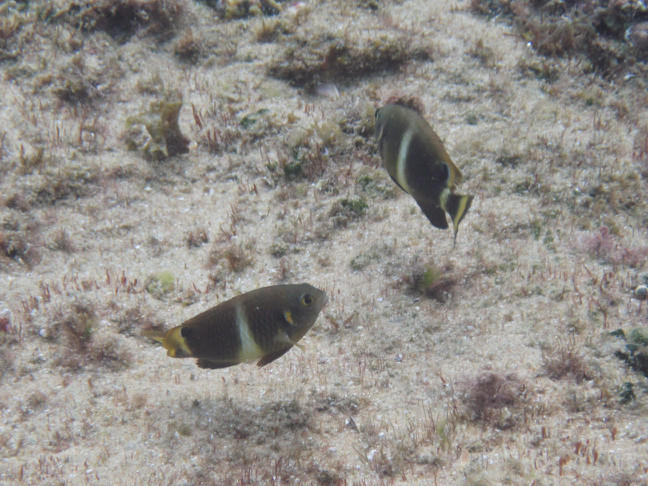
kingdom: Animalia
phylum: Chordata
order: Perciformes
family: Pomacentridae
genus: Chrysiptera
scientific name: Chrysiptera brownriggii
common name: Surge demoiselle
